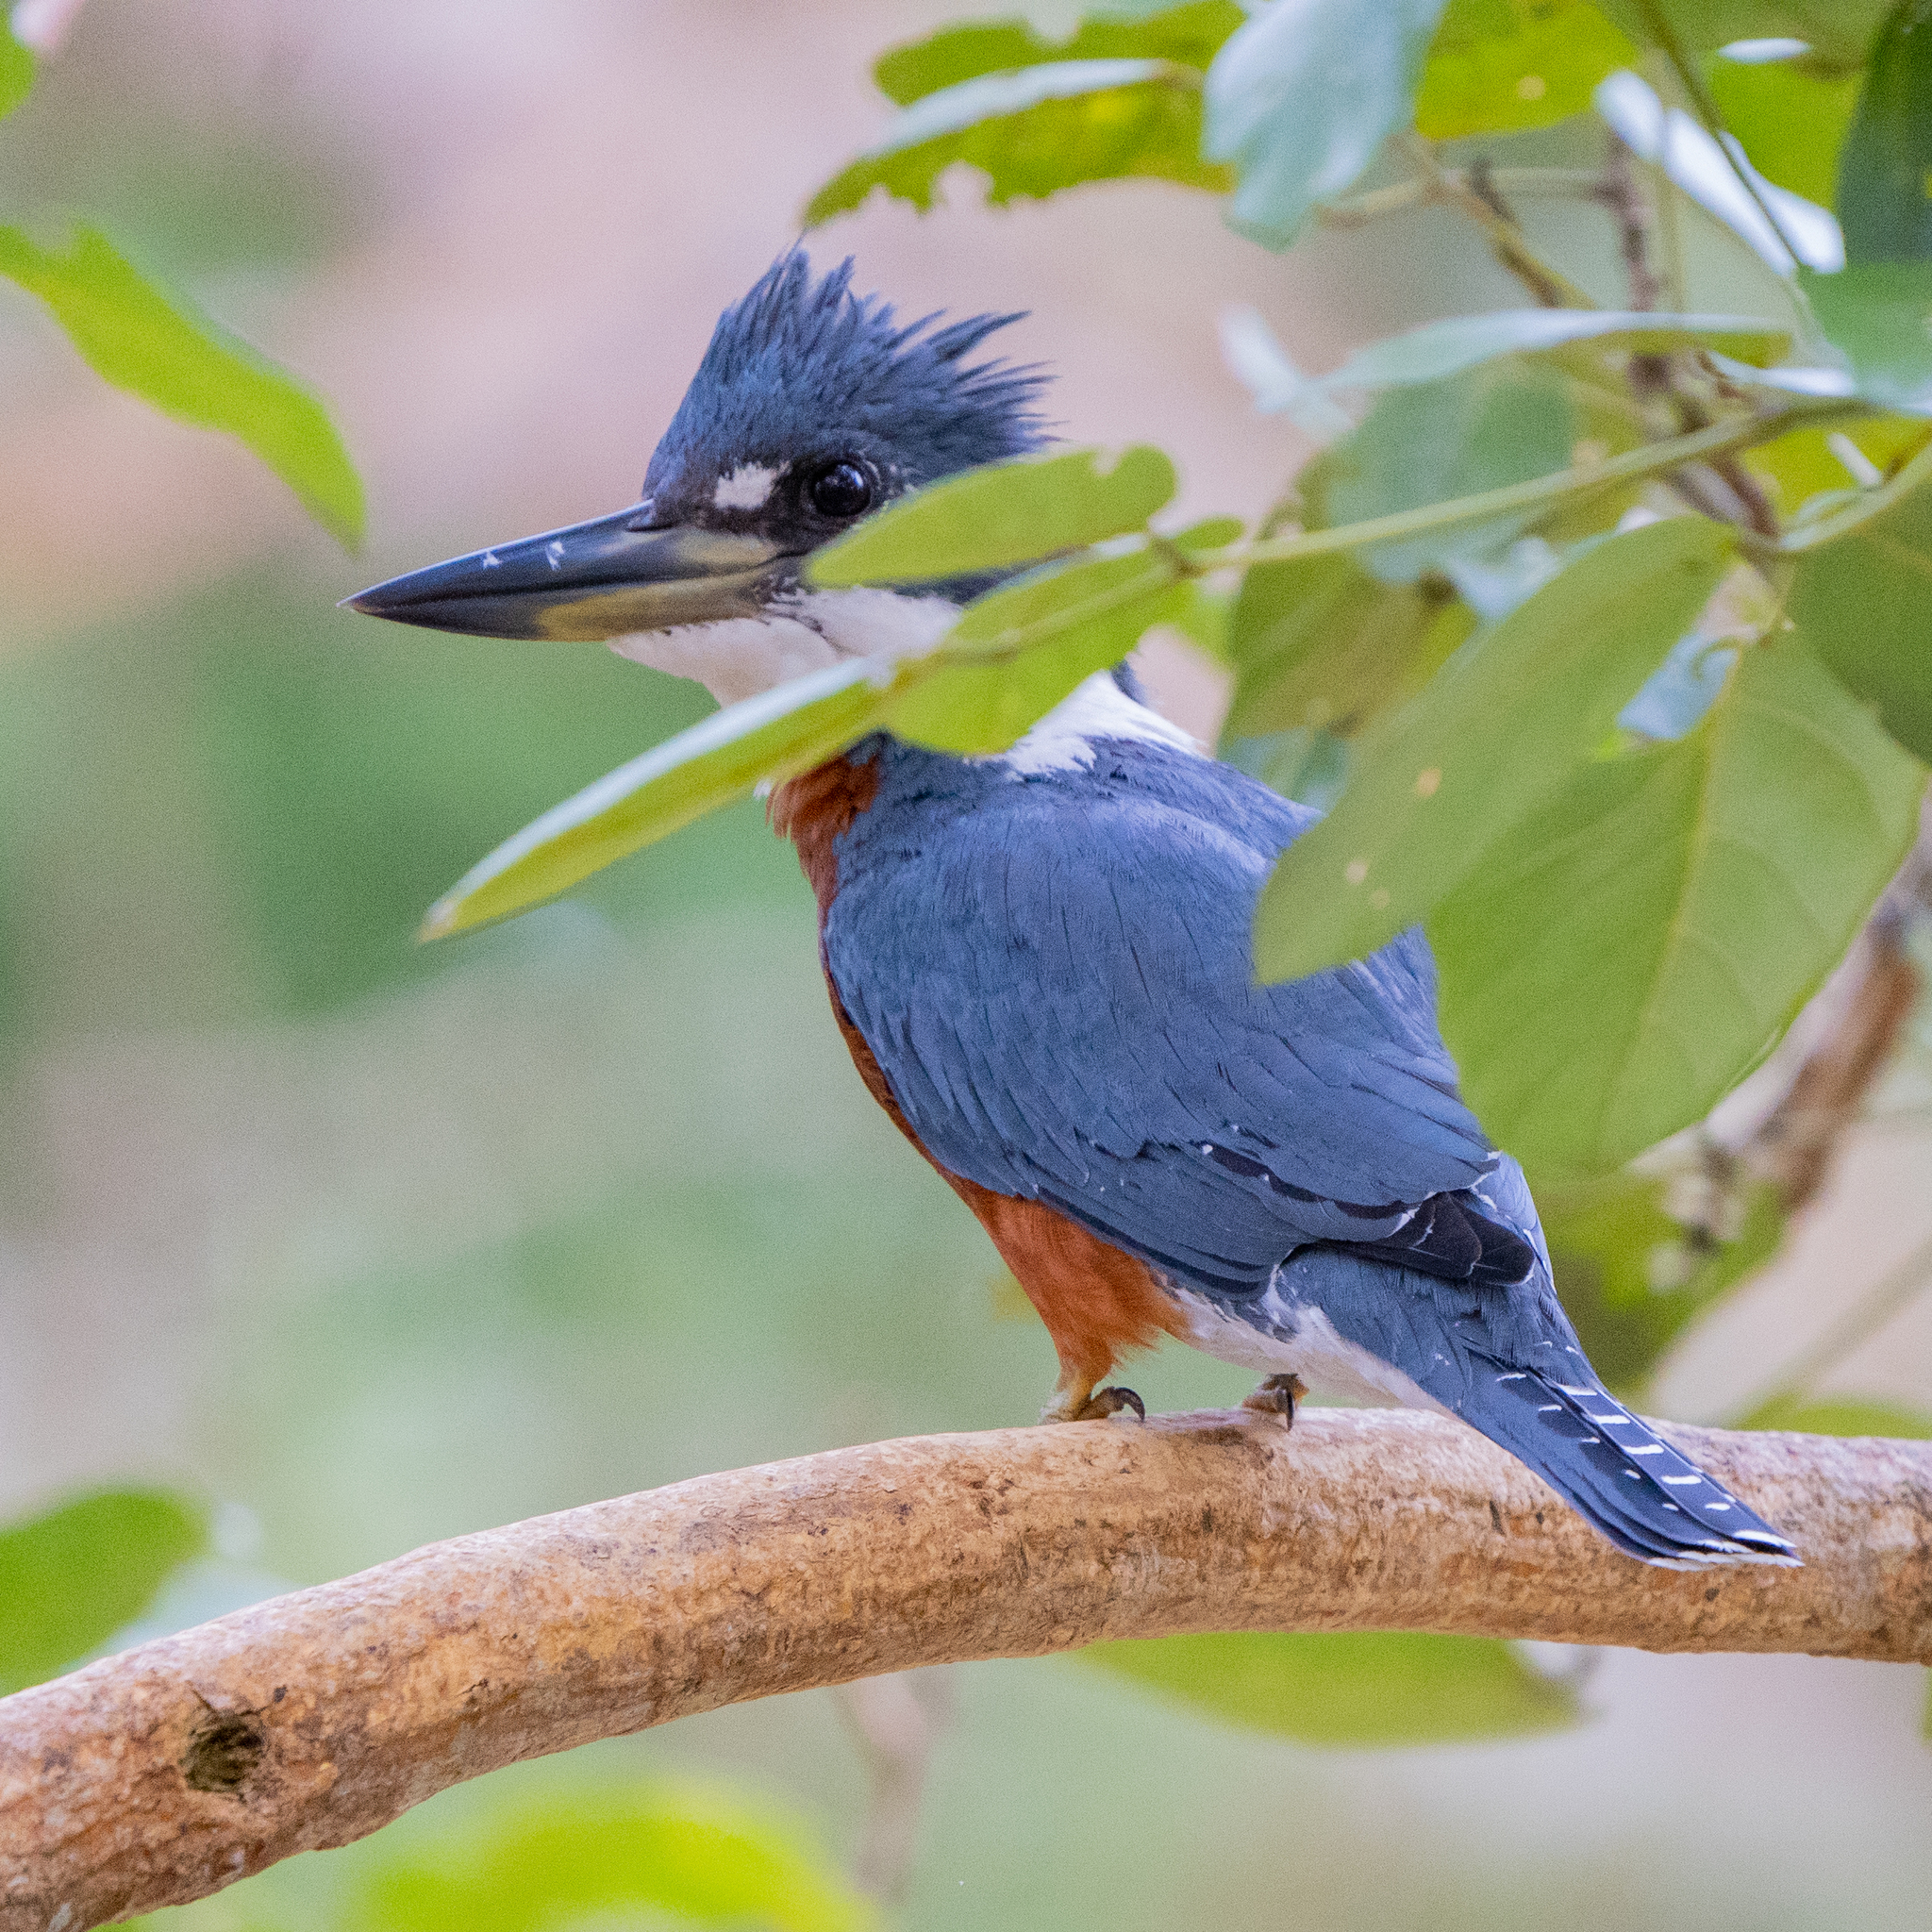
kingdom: Animalia
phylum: Chordata
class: Aves
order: Coraciiformes
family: Alcedinidae
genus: Megaceryle
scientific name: Megaceryle torquata
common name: Ringed kingfisher
